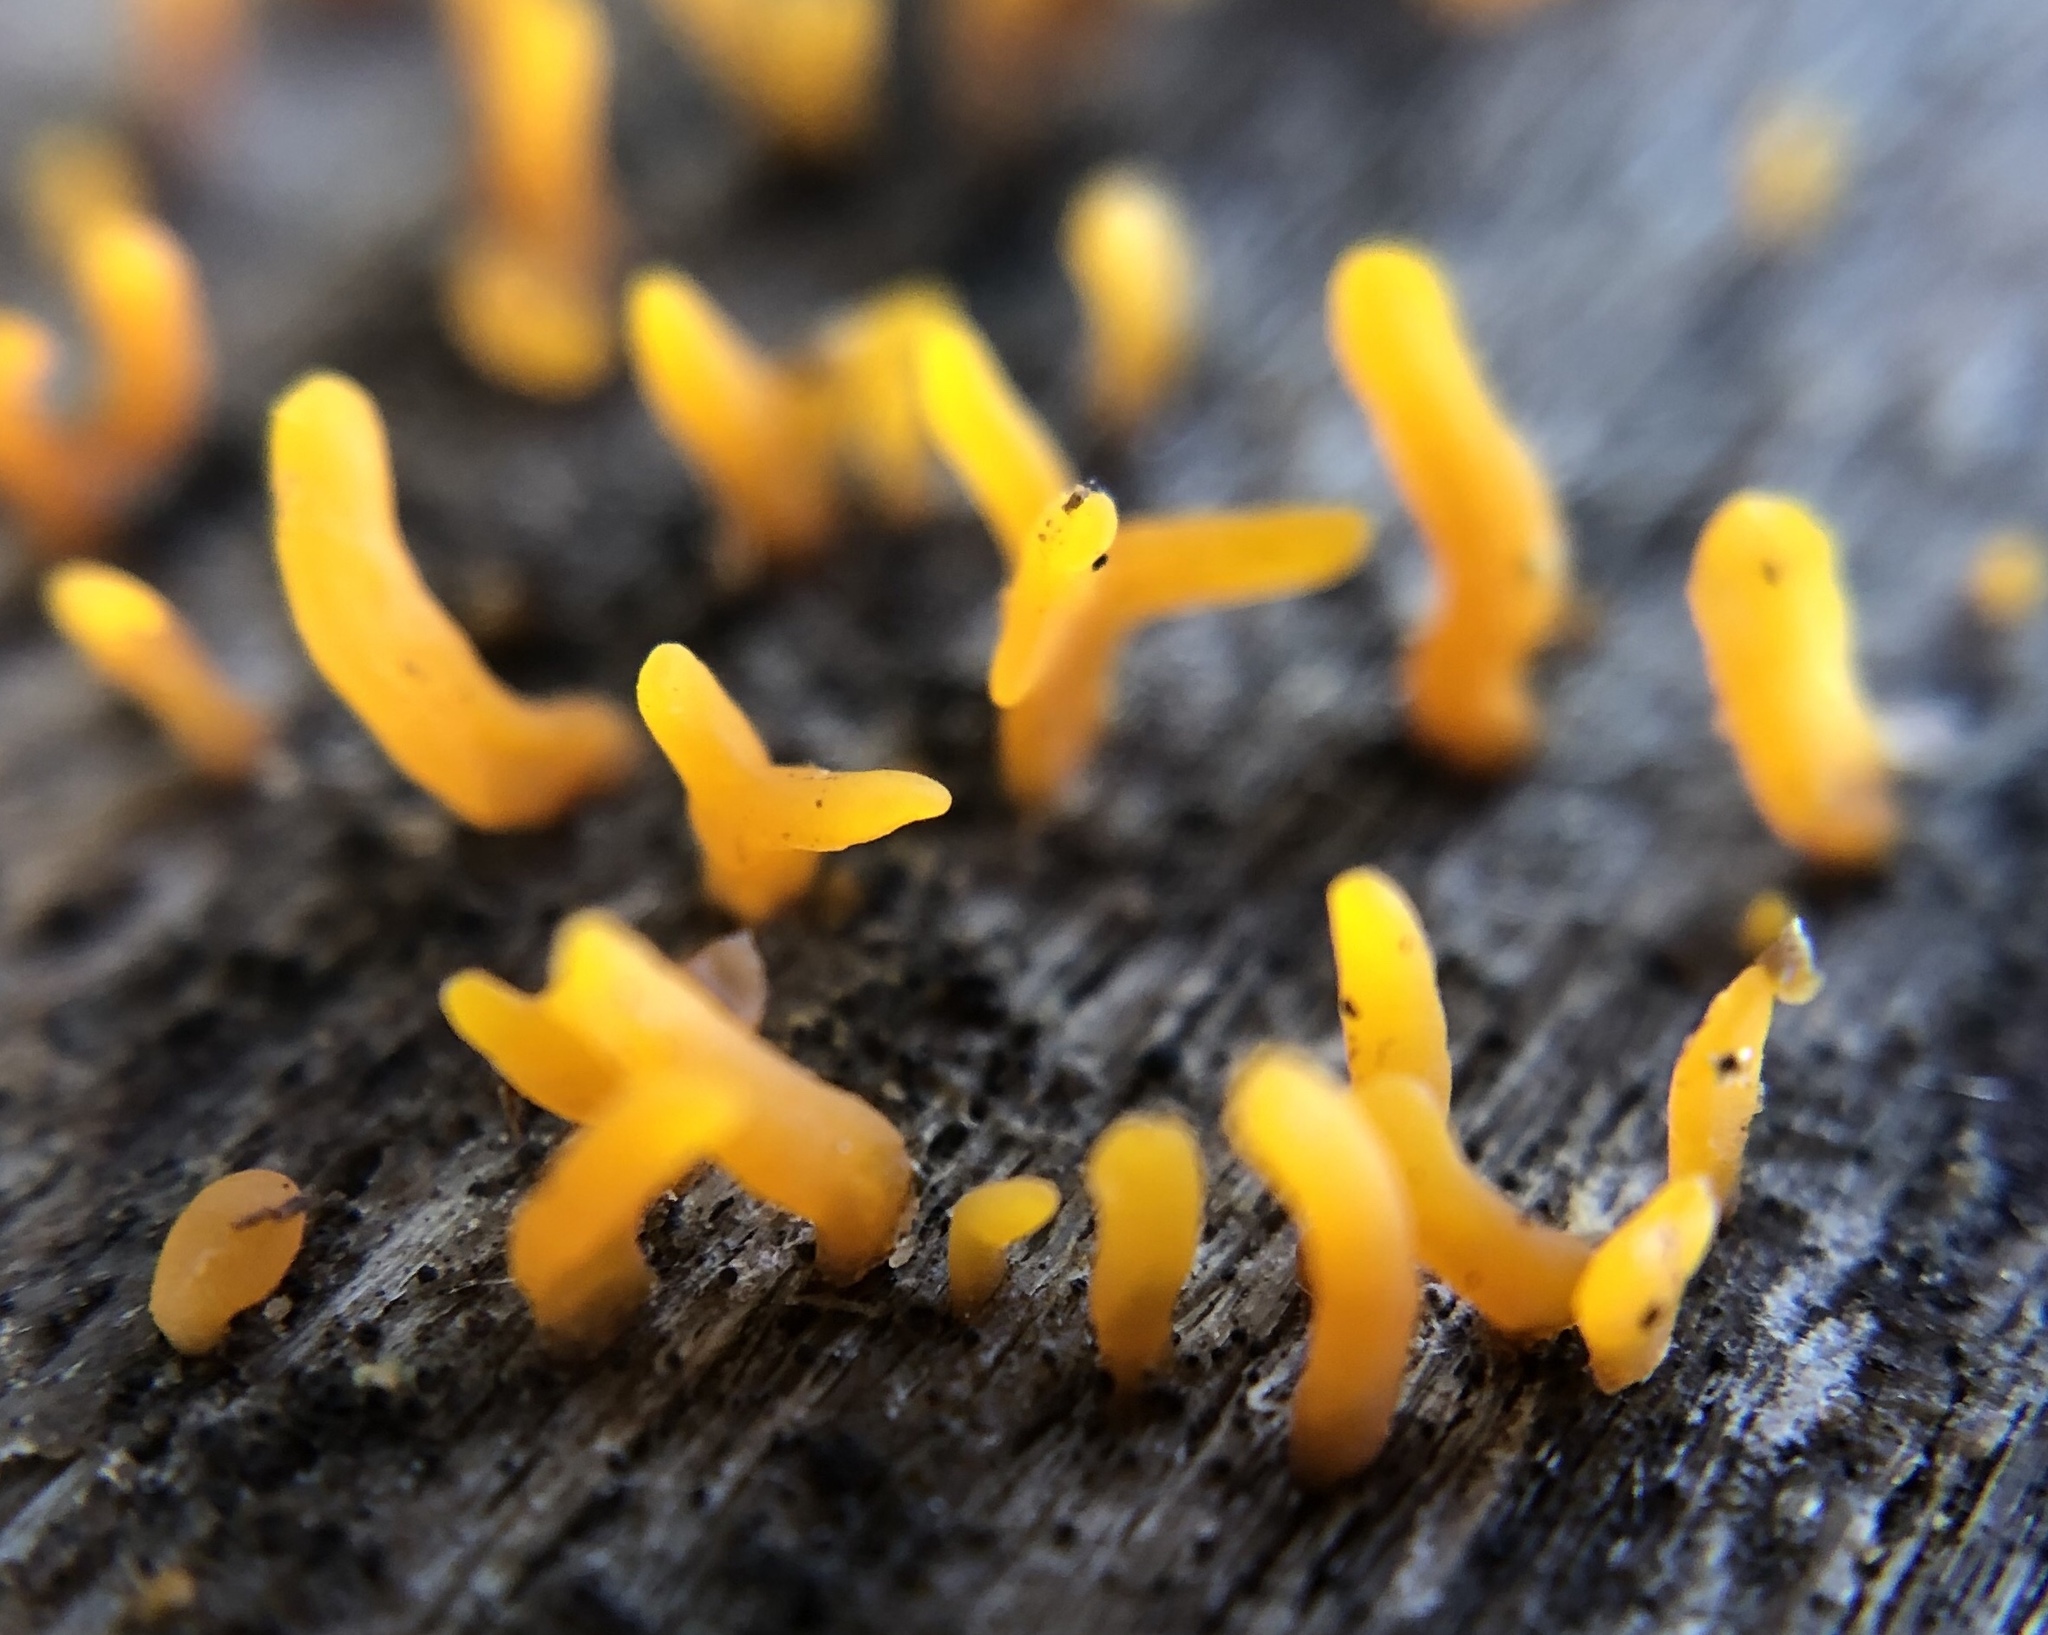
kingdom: Fungi
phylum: Basidiomycota
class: Dacrymycetes
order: Dacrymycetales
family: Dacrymycetaceae
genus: Calocera
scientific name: Calocera cornea
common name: Small stagshorn
